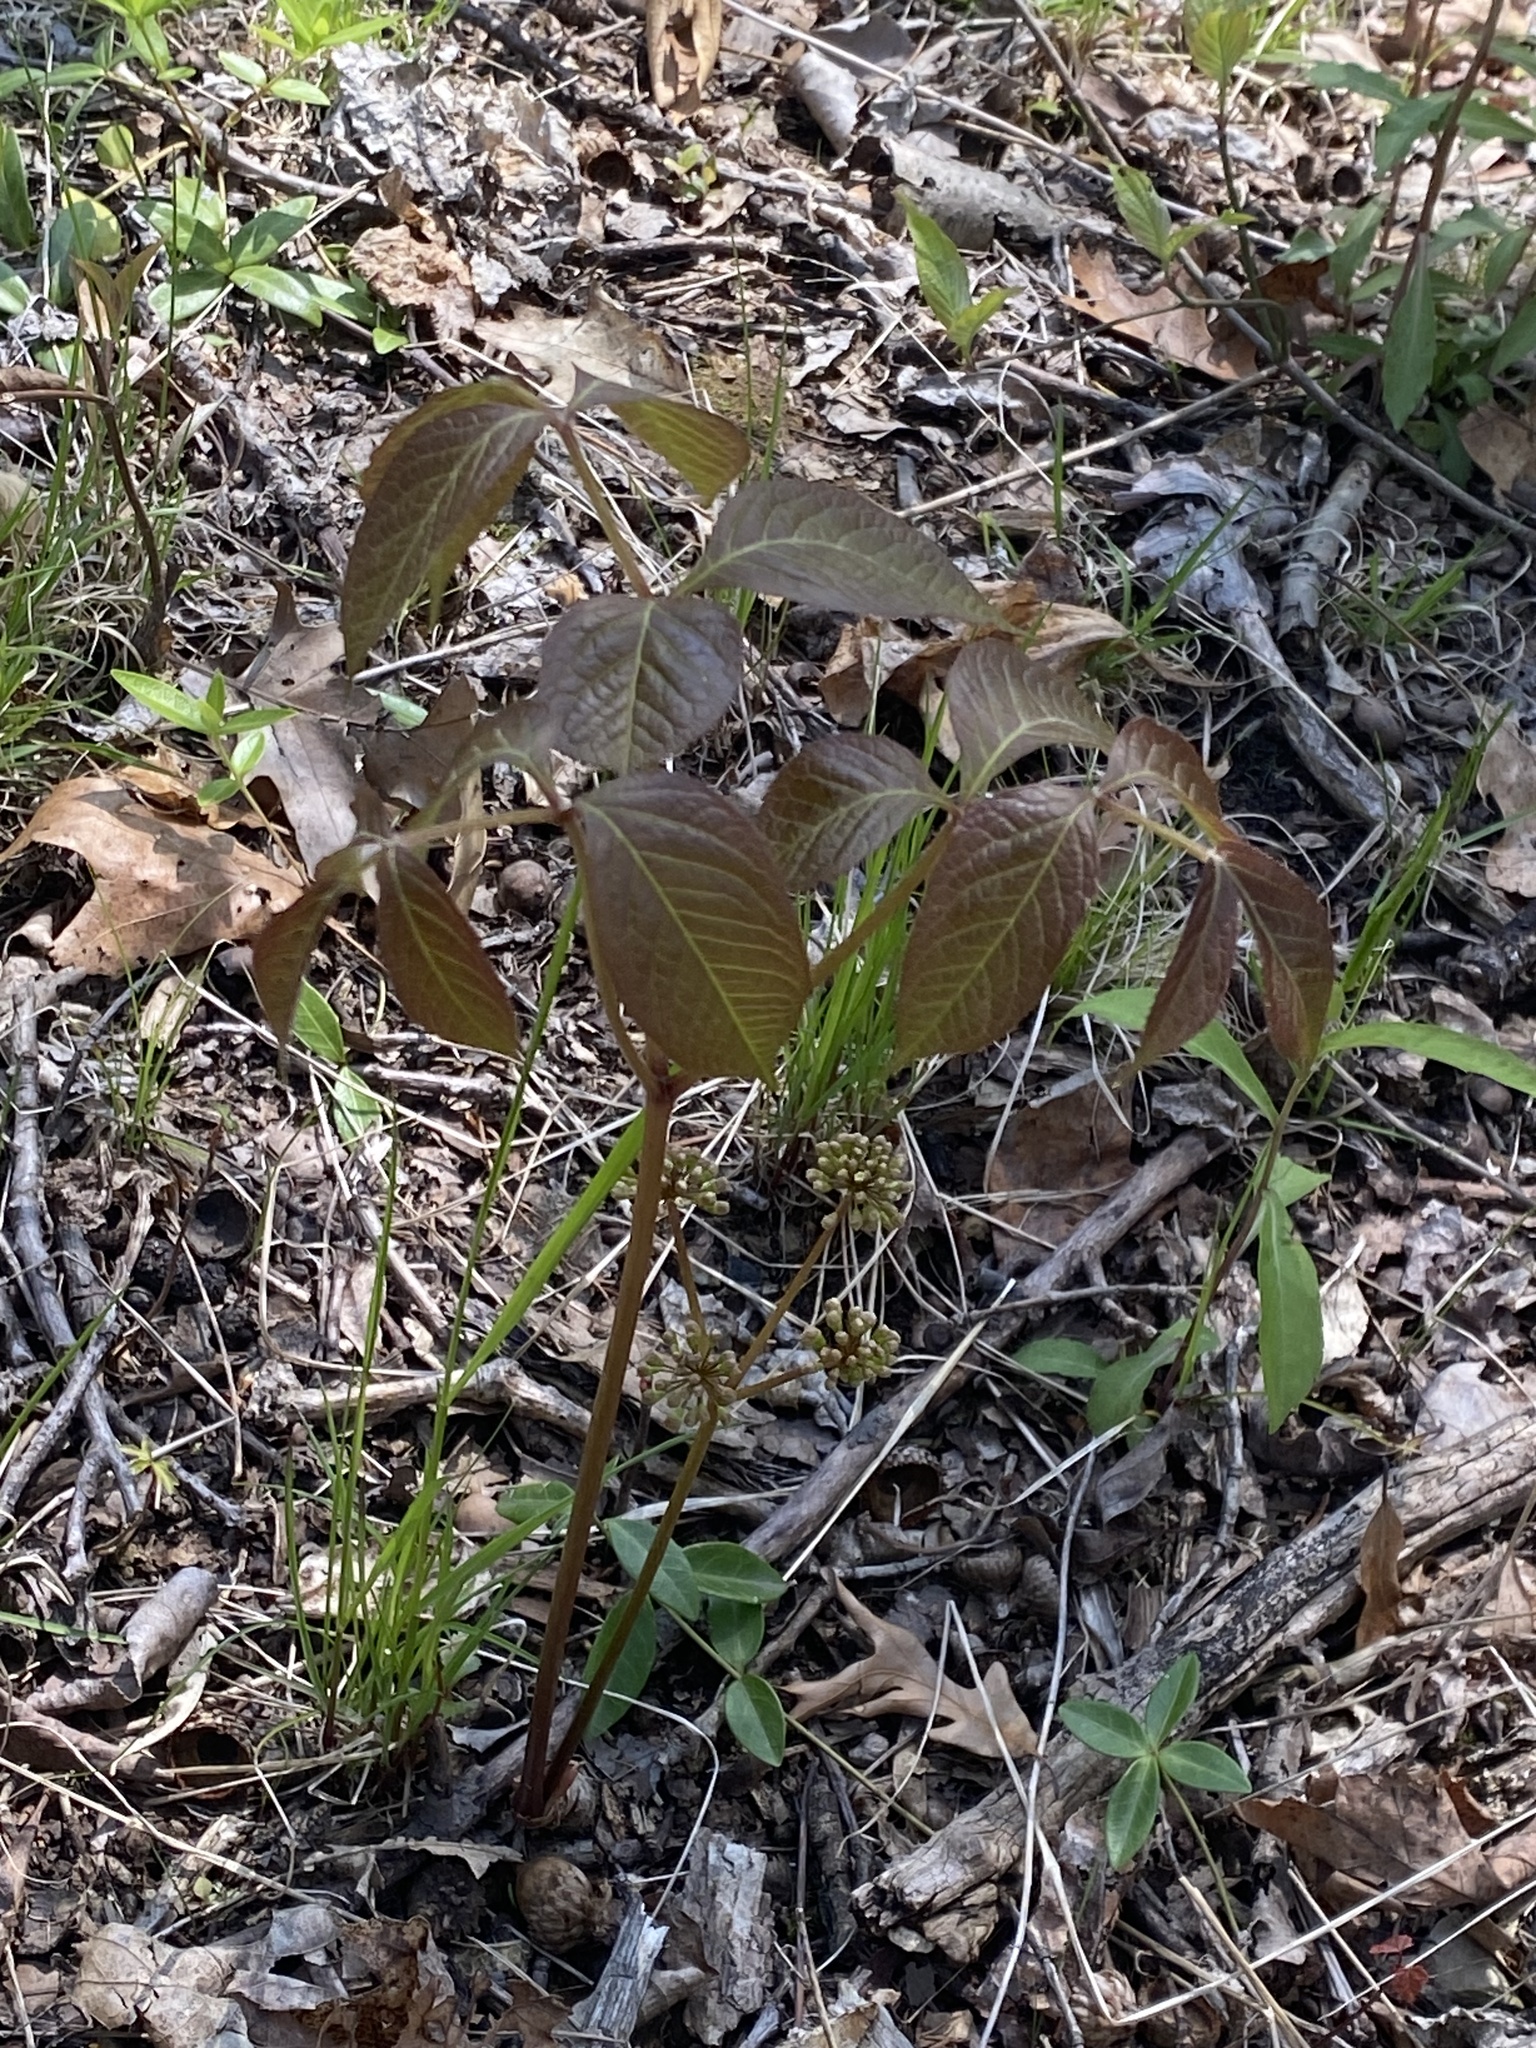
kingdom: Plantae
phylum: Tracheophyta
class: Magnoliopsida
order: Apiales
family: Araliaceae
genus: Aralia
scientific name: Aralia nudicaulis
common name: Wild sarsaparilla
